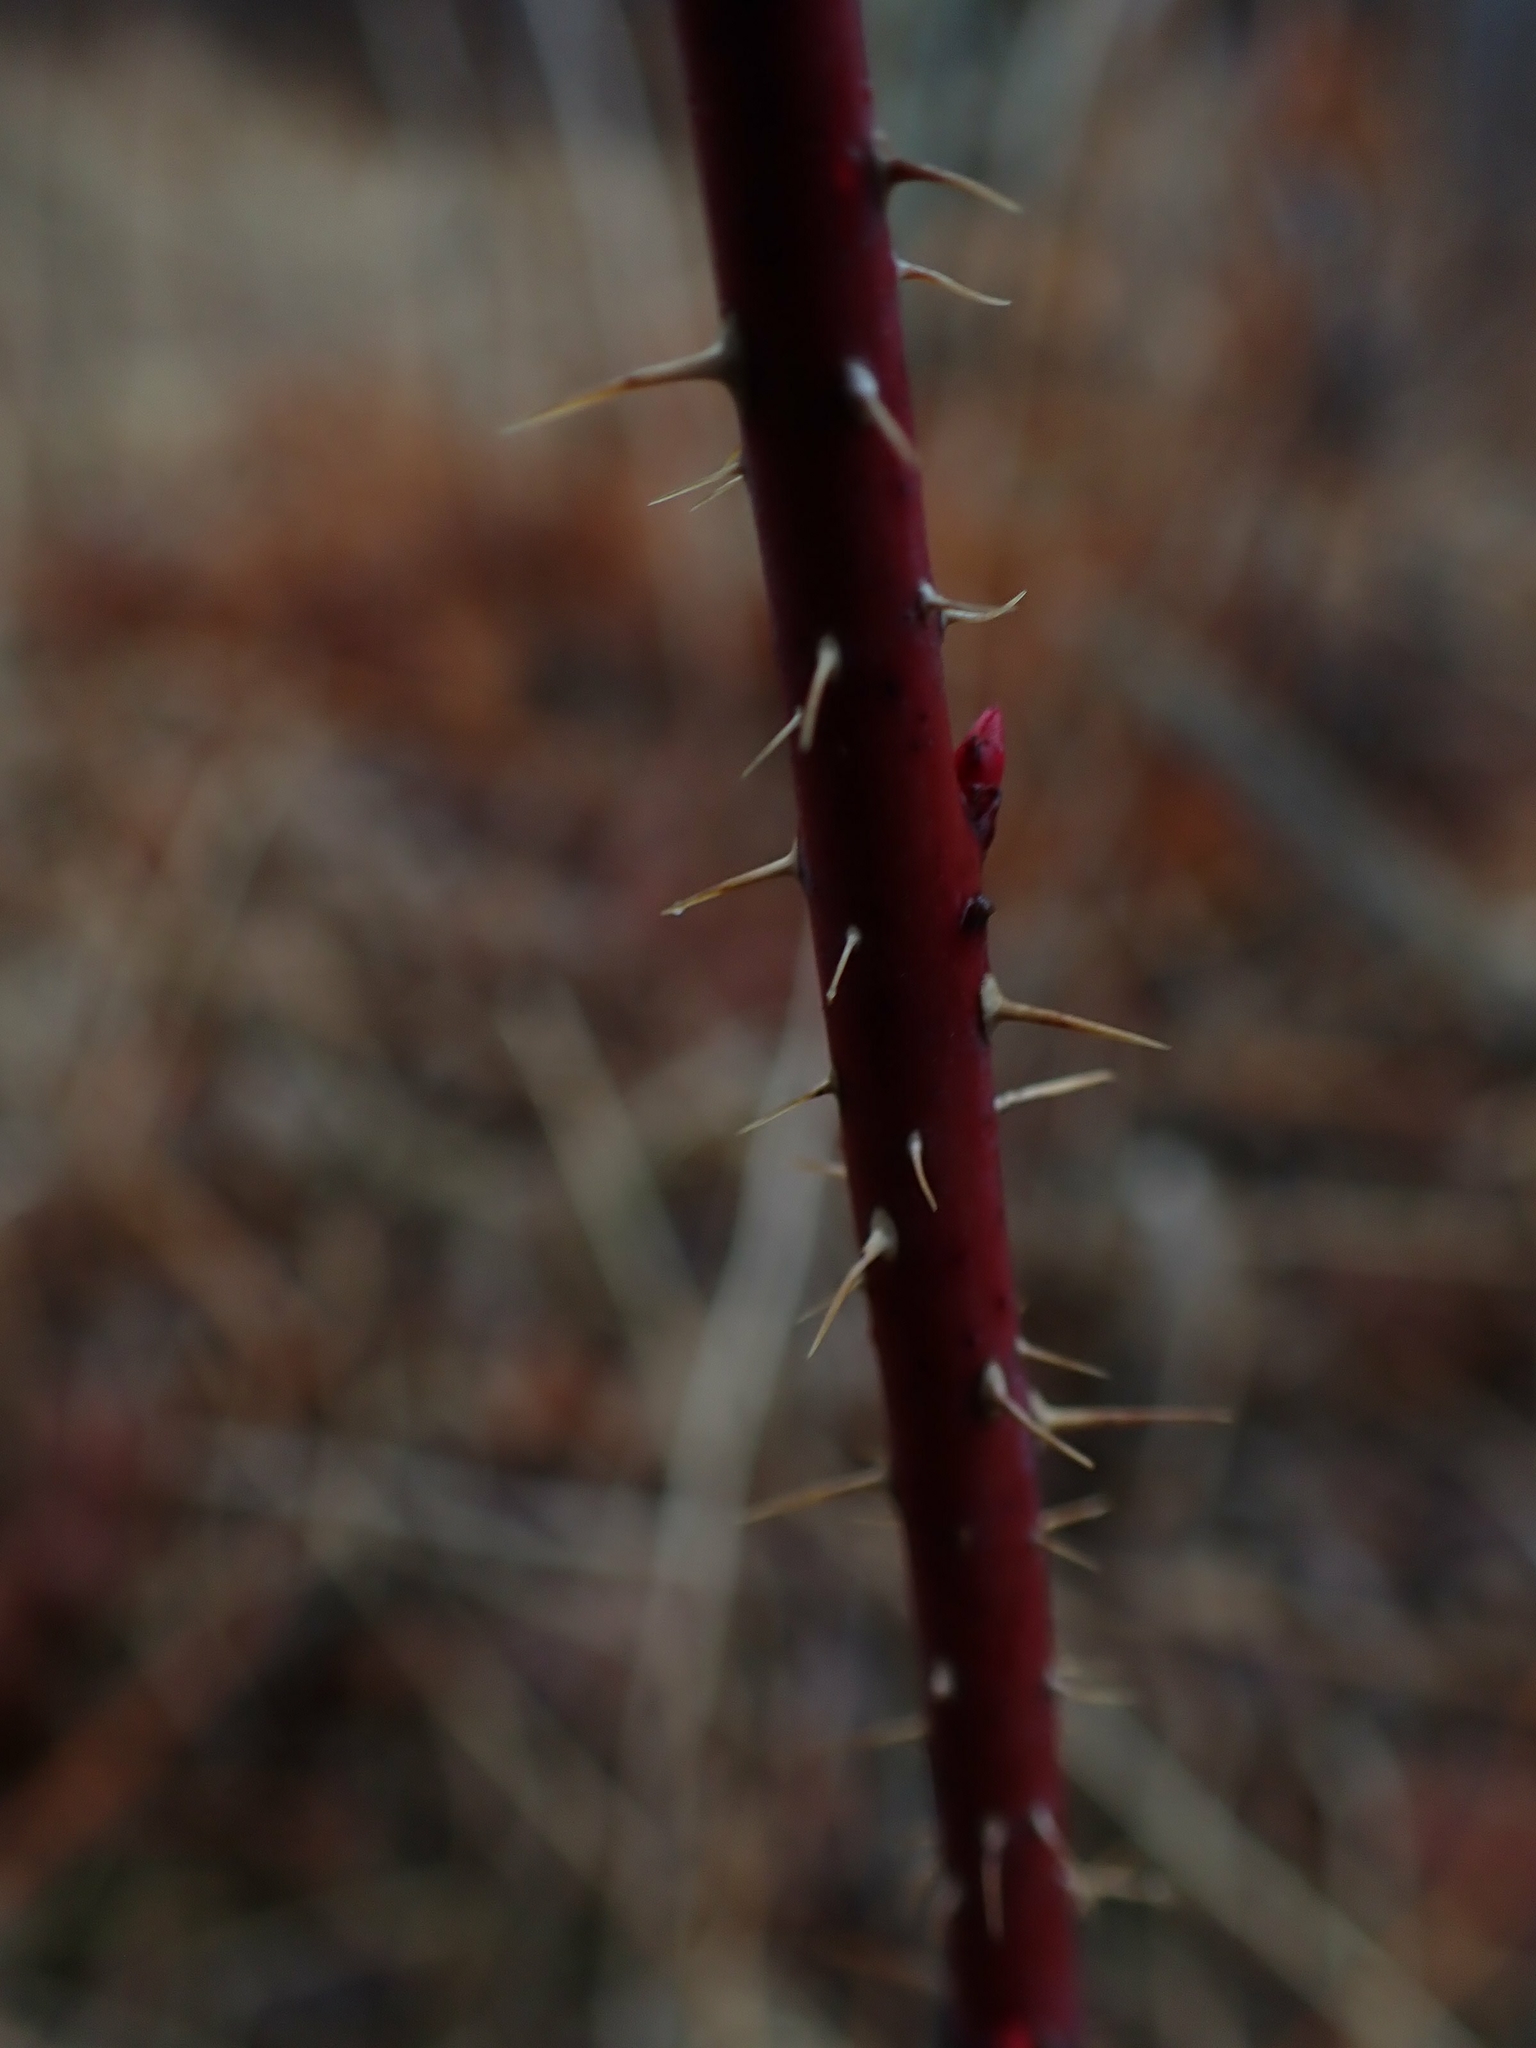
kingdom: Plantae
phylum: Tracheophyta
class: Magnoliopsida
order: Rosales
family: Rosaceae
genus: Rosa
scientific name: Rosa woodsii
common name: Woods's rose
